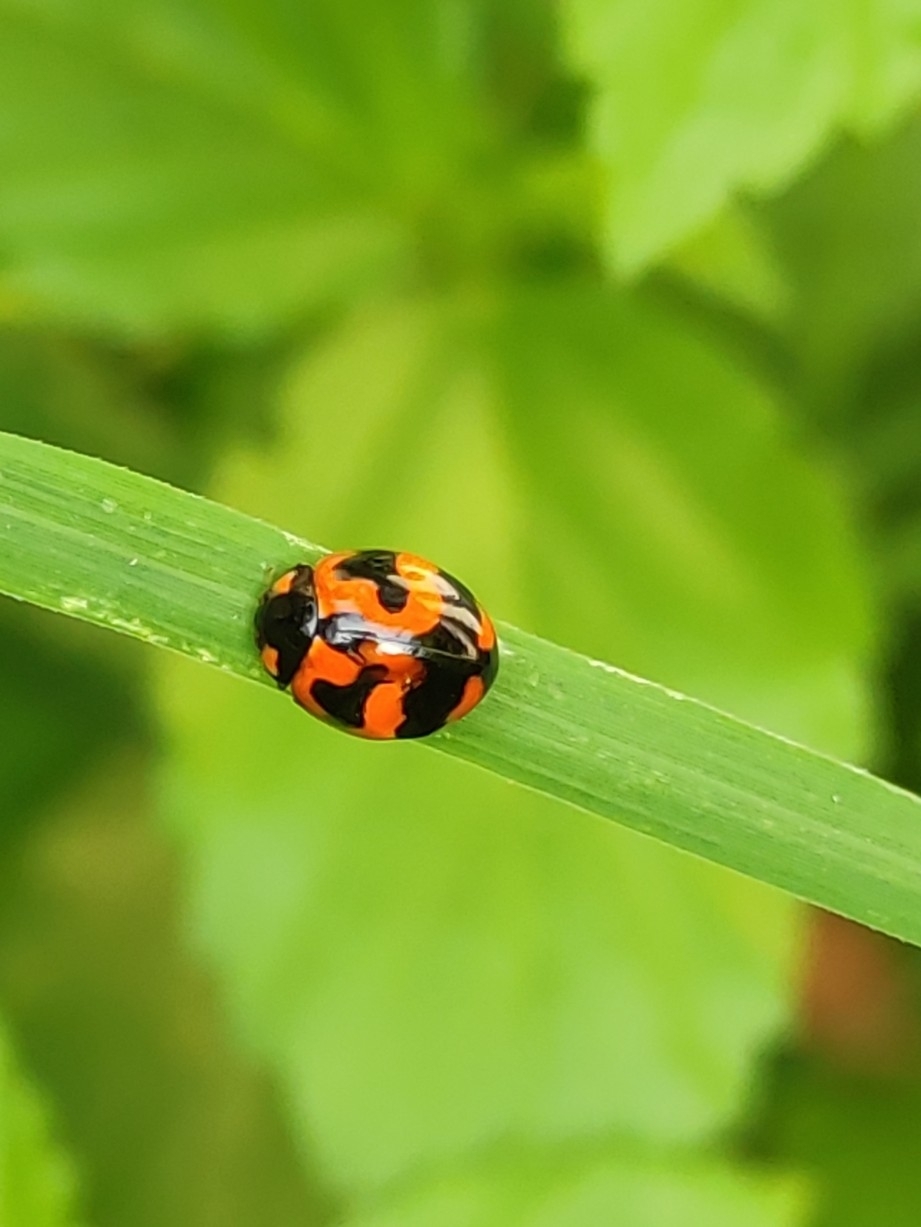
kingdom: Animalia
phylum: Arthropoda
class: Insecta
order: Coleoptera
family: Coccinellidae
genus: Coccinella
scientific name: Coccinella transversalis
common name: Transverse lady beetle
